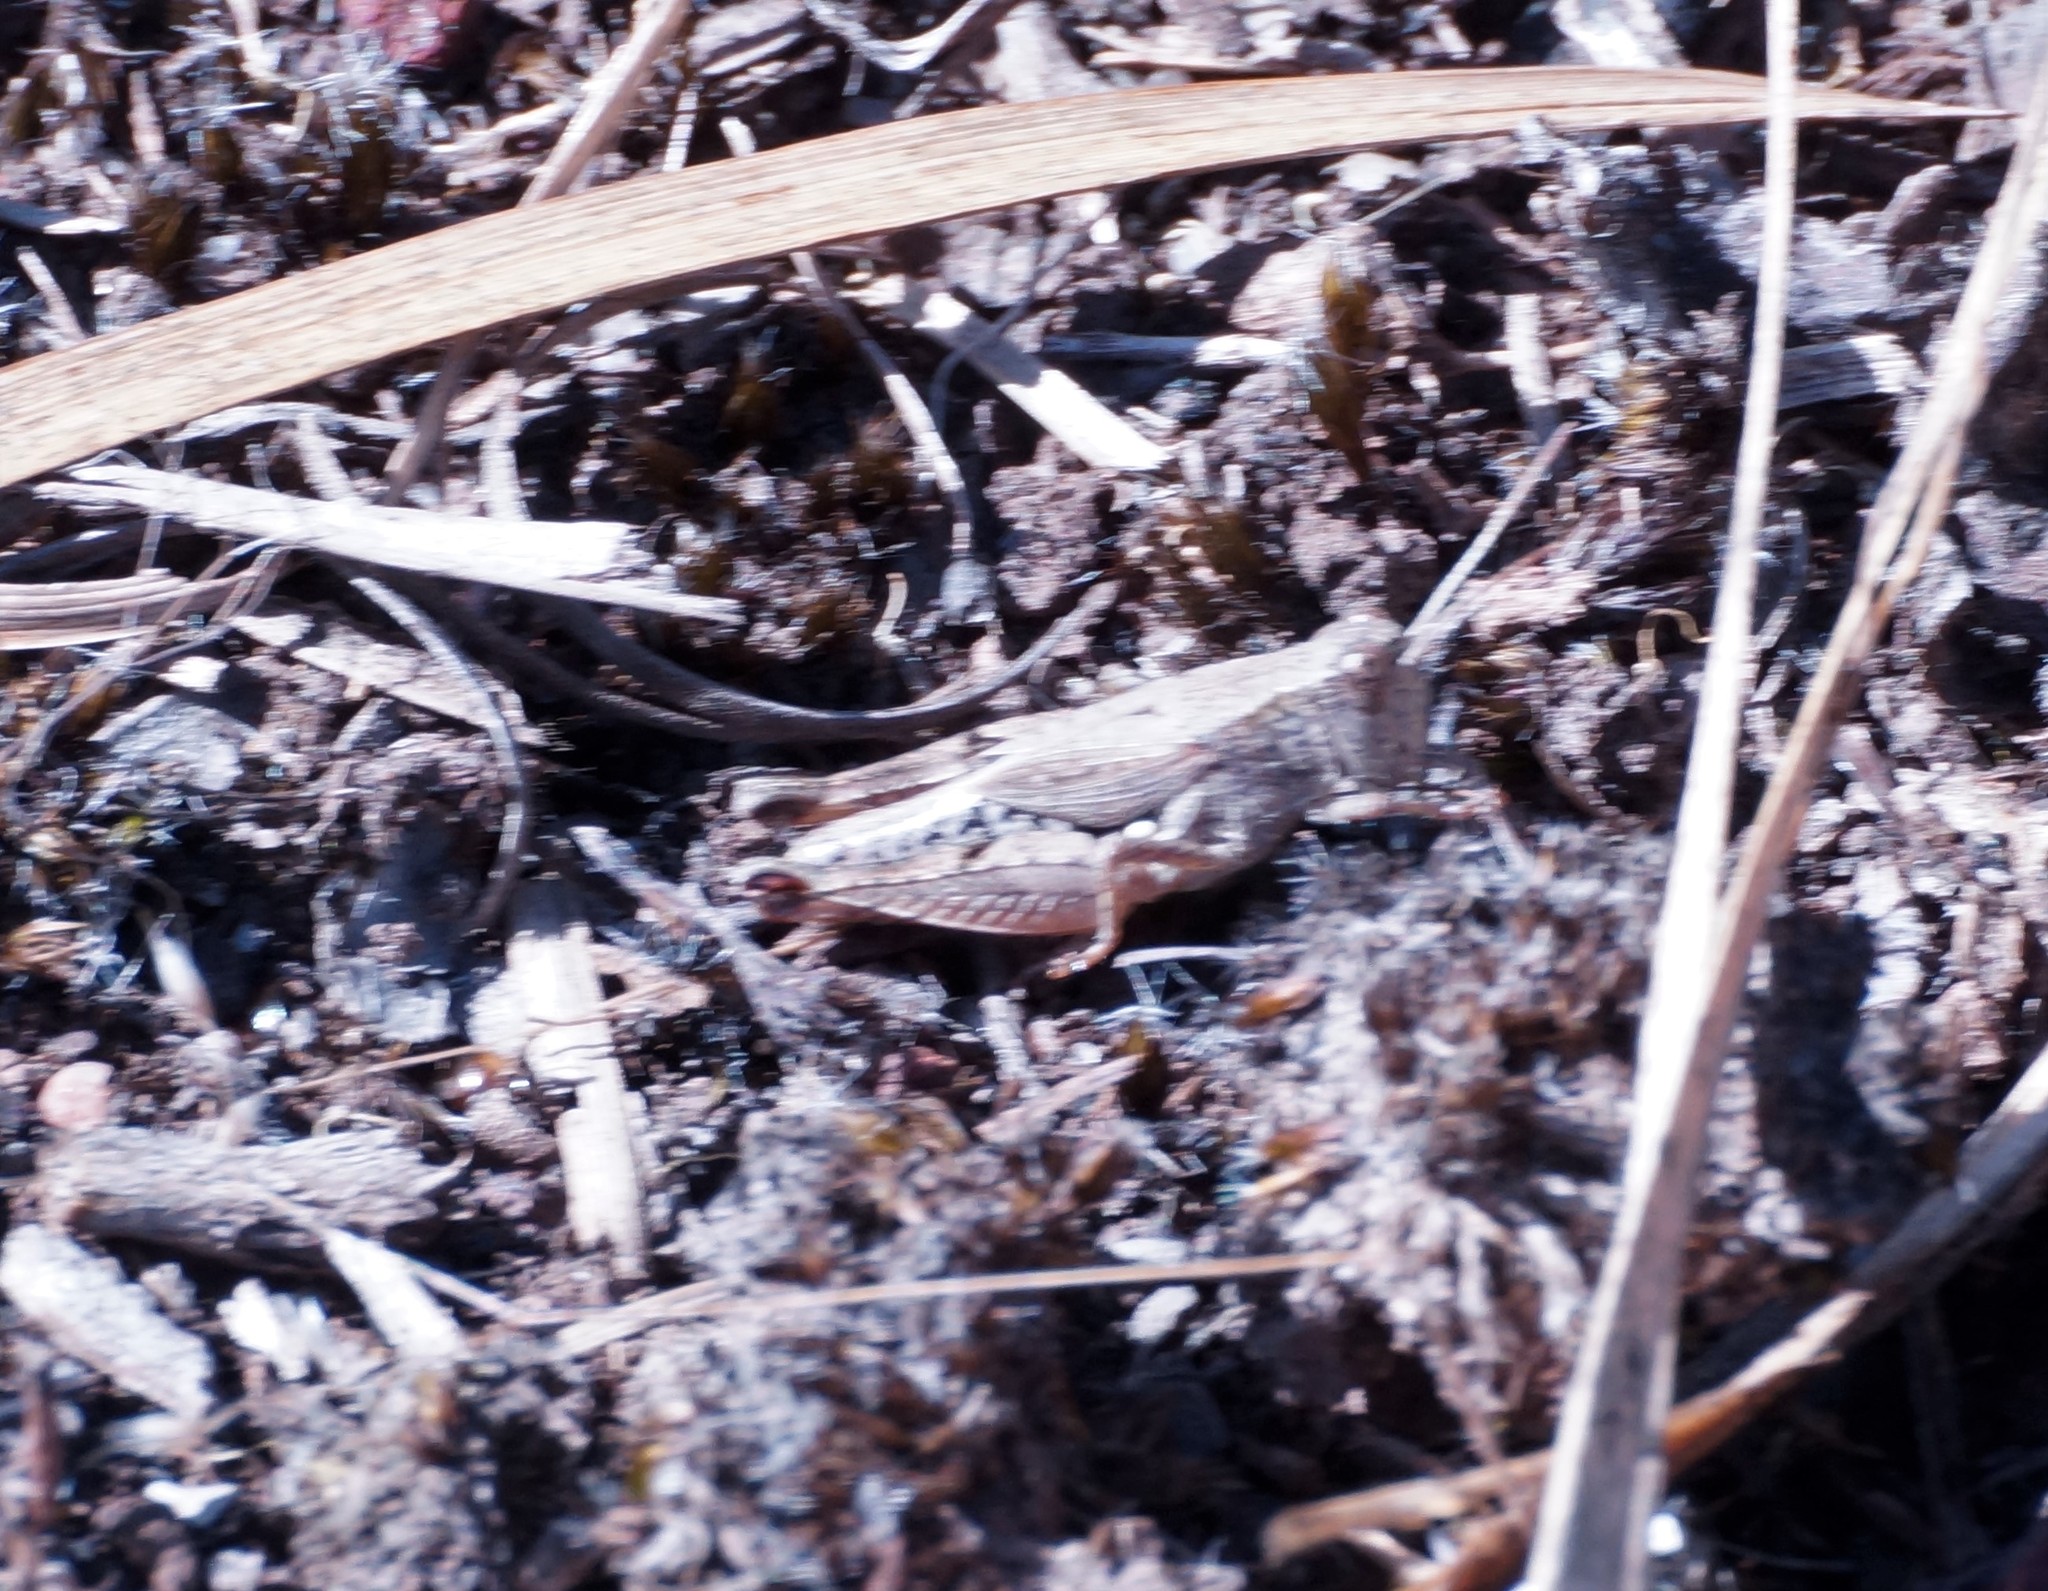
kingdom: Animalia
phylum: Arthropoda
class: Insecta
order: Orthoptera
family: Acrididae
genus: Phaulacridium
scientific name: Phaulacridium vittatum
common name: Wingless grasshopper
